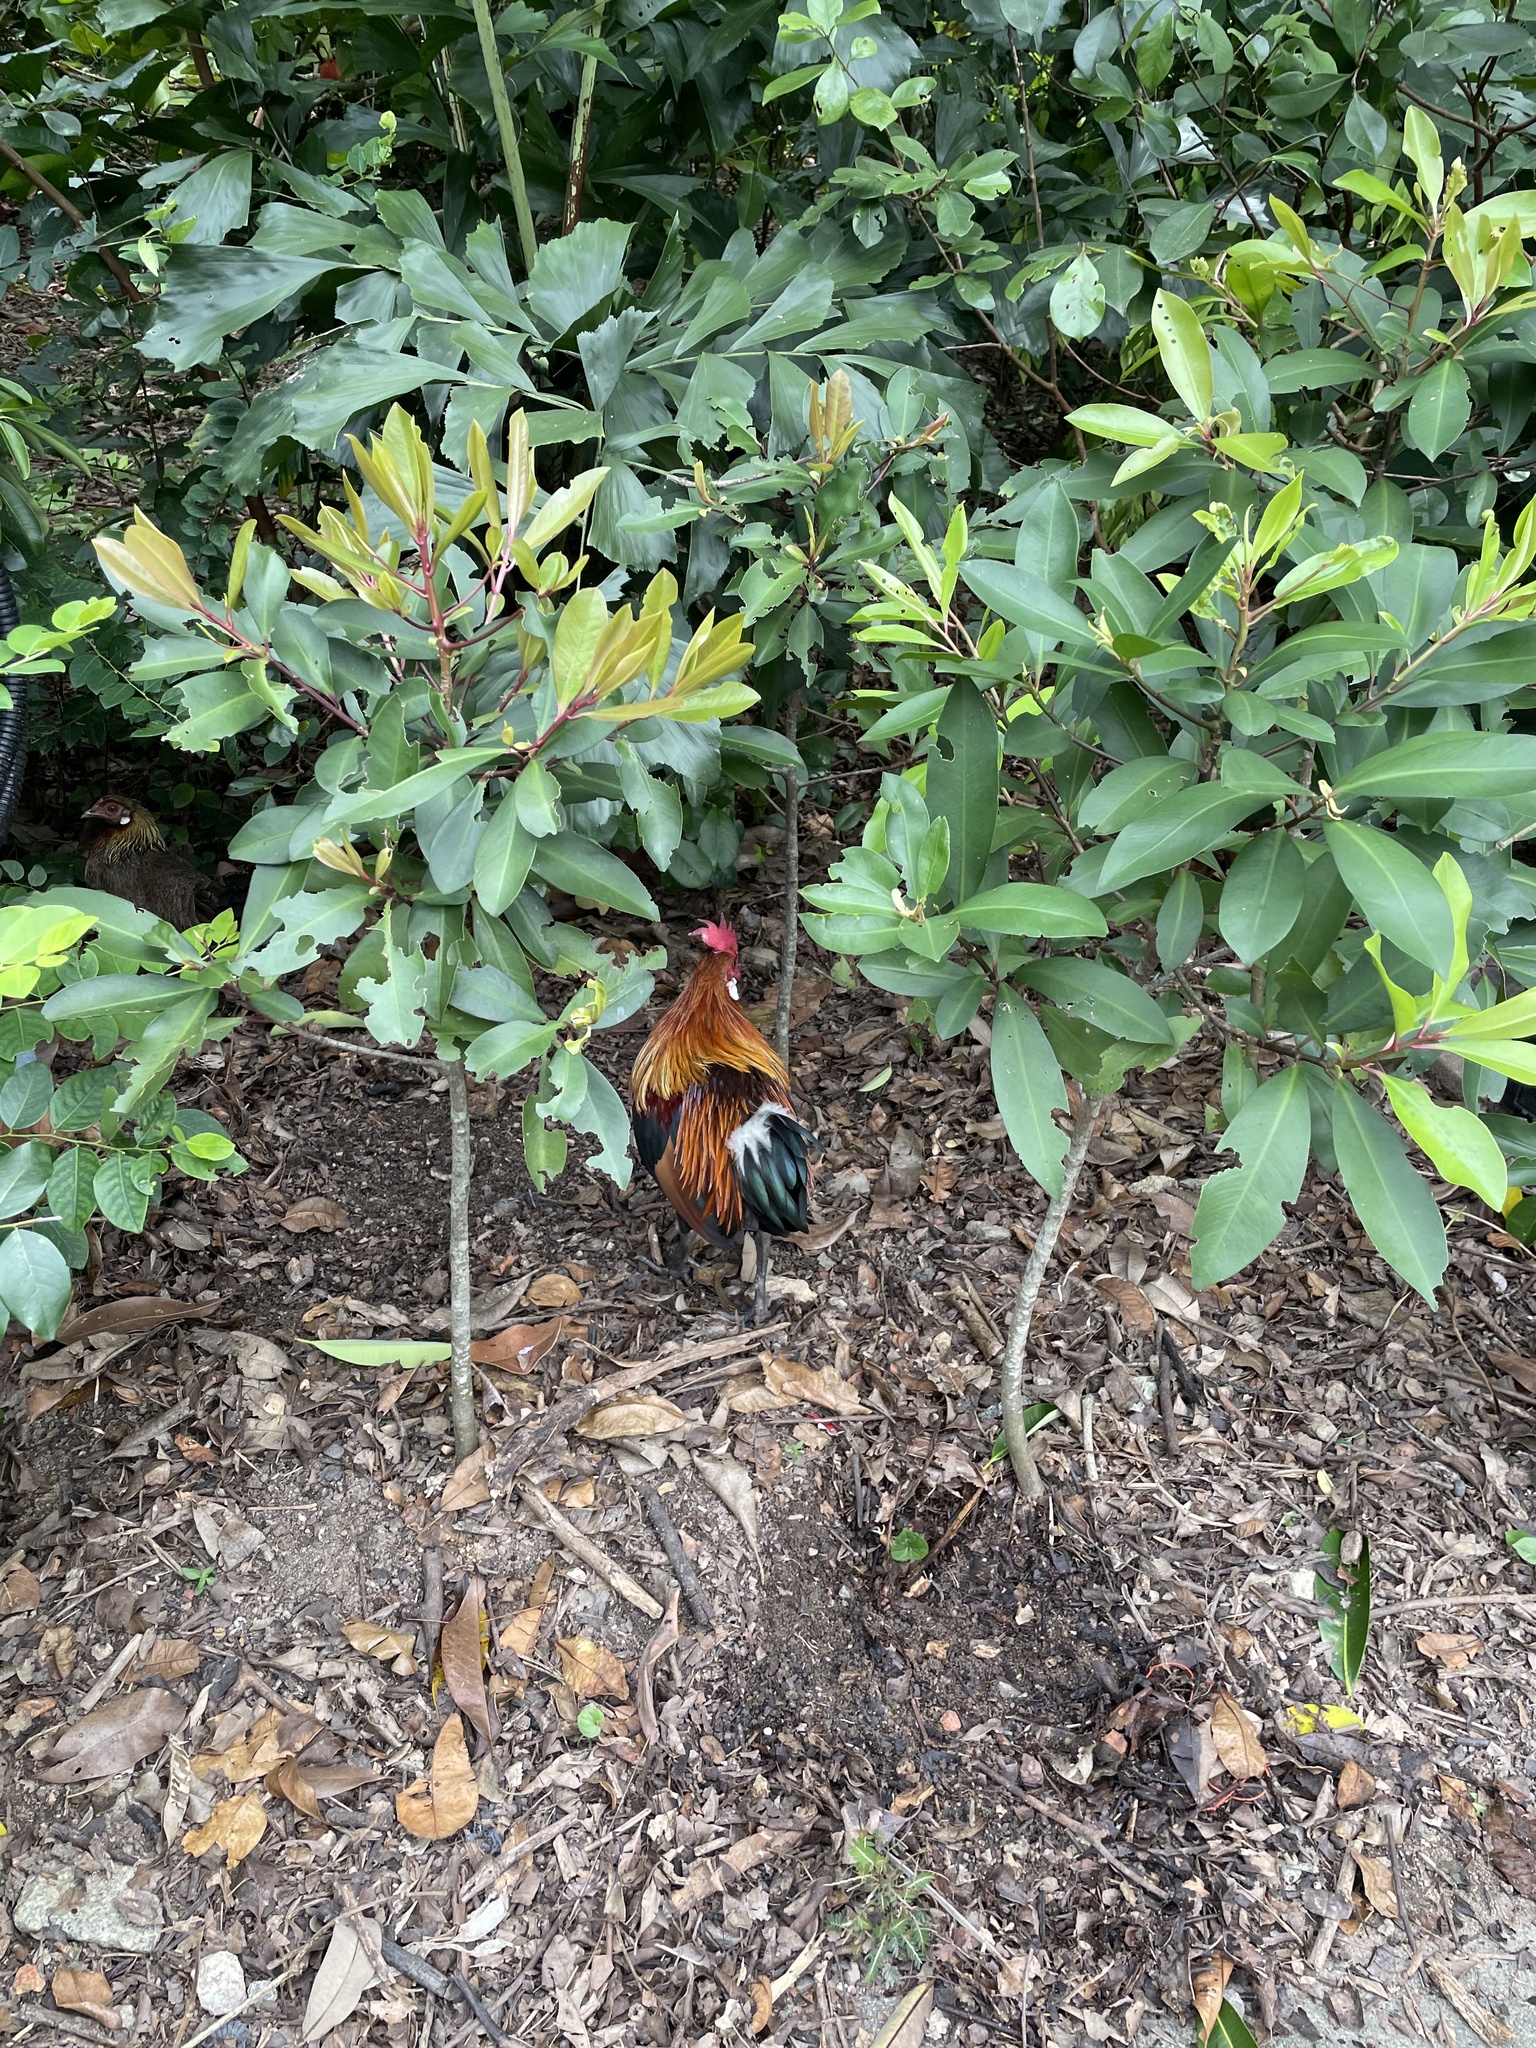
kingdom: Animalia
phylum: Chordata
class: Aves
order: Galliformes
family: Phasianidae
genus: Gallus
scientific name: Gallus gallus
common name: Red junglefowl
